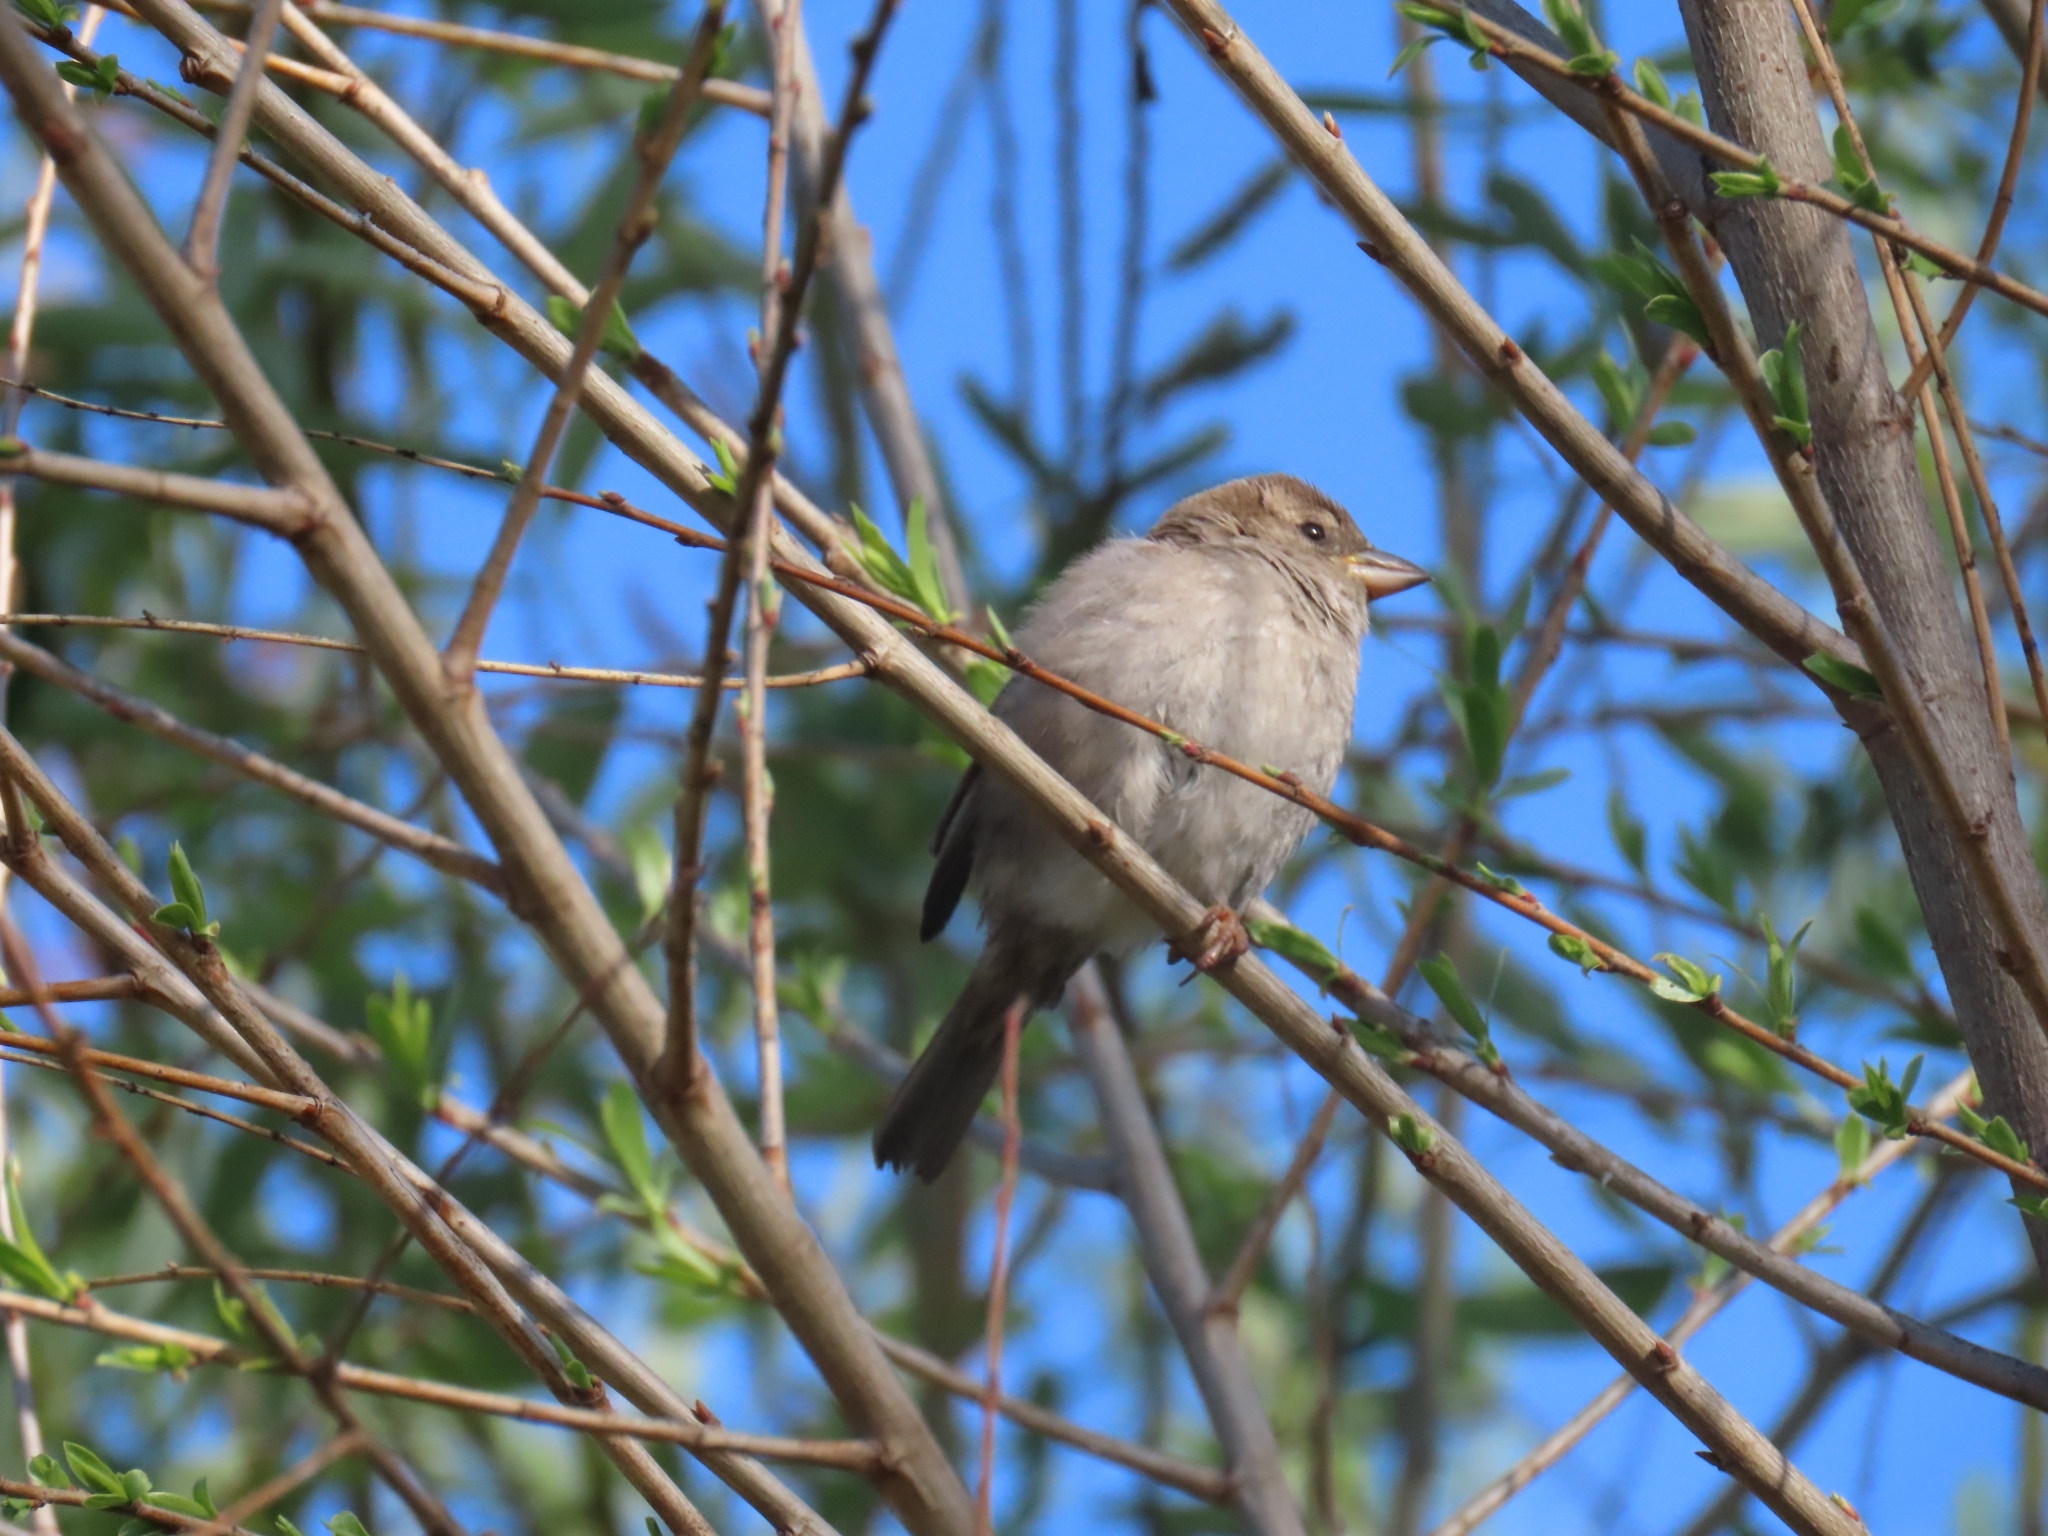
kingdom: Animalia
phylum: Chordata
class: Aves
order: Passeriformes
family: Passeridae
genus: Passer
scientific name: Passer domesticus
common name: House sparrow
